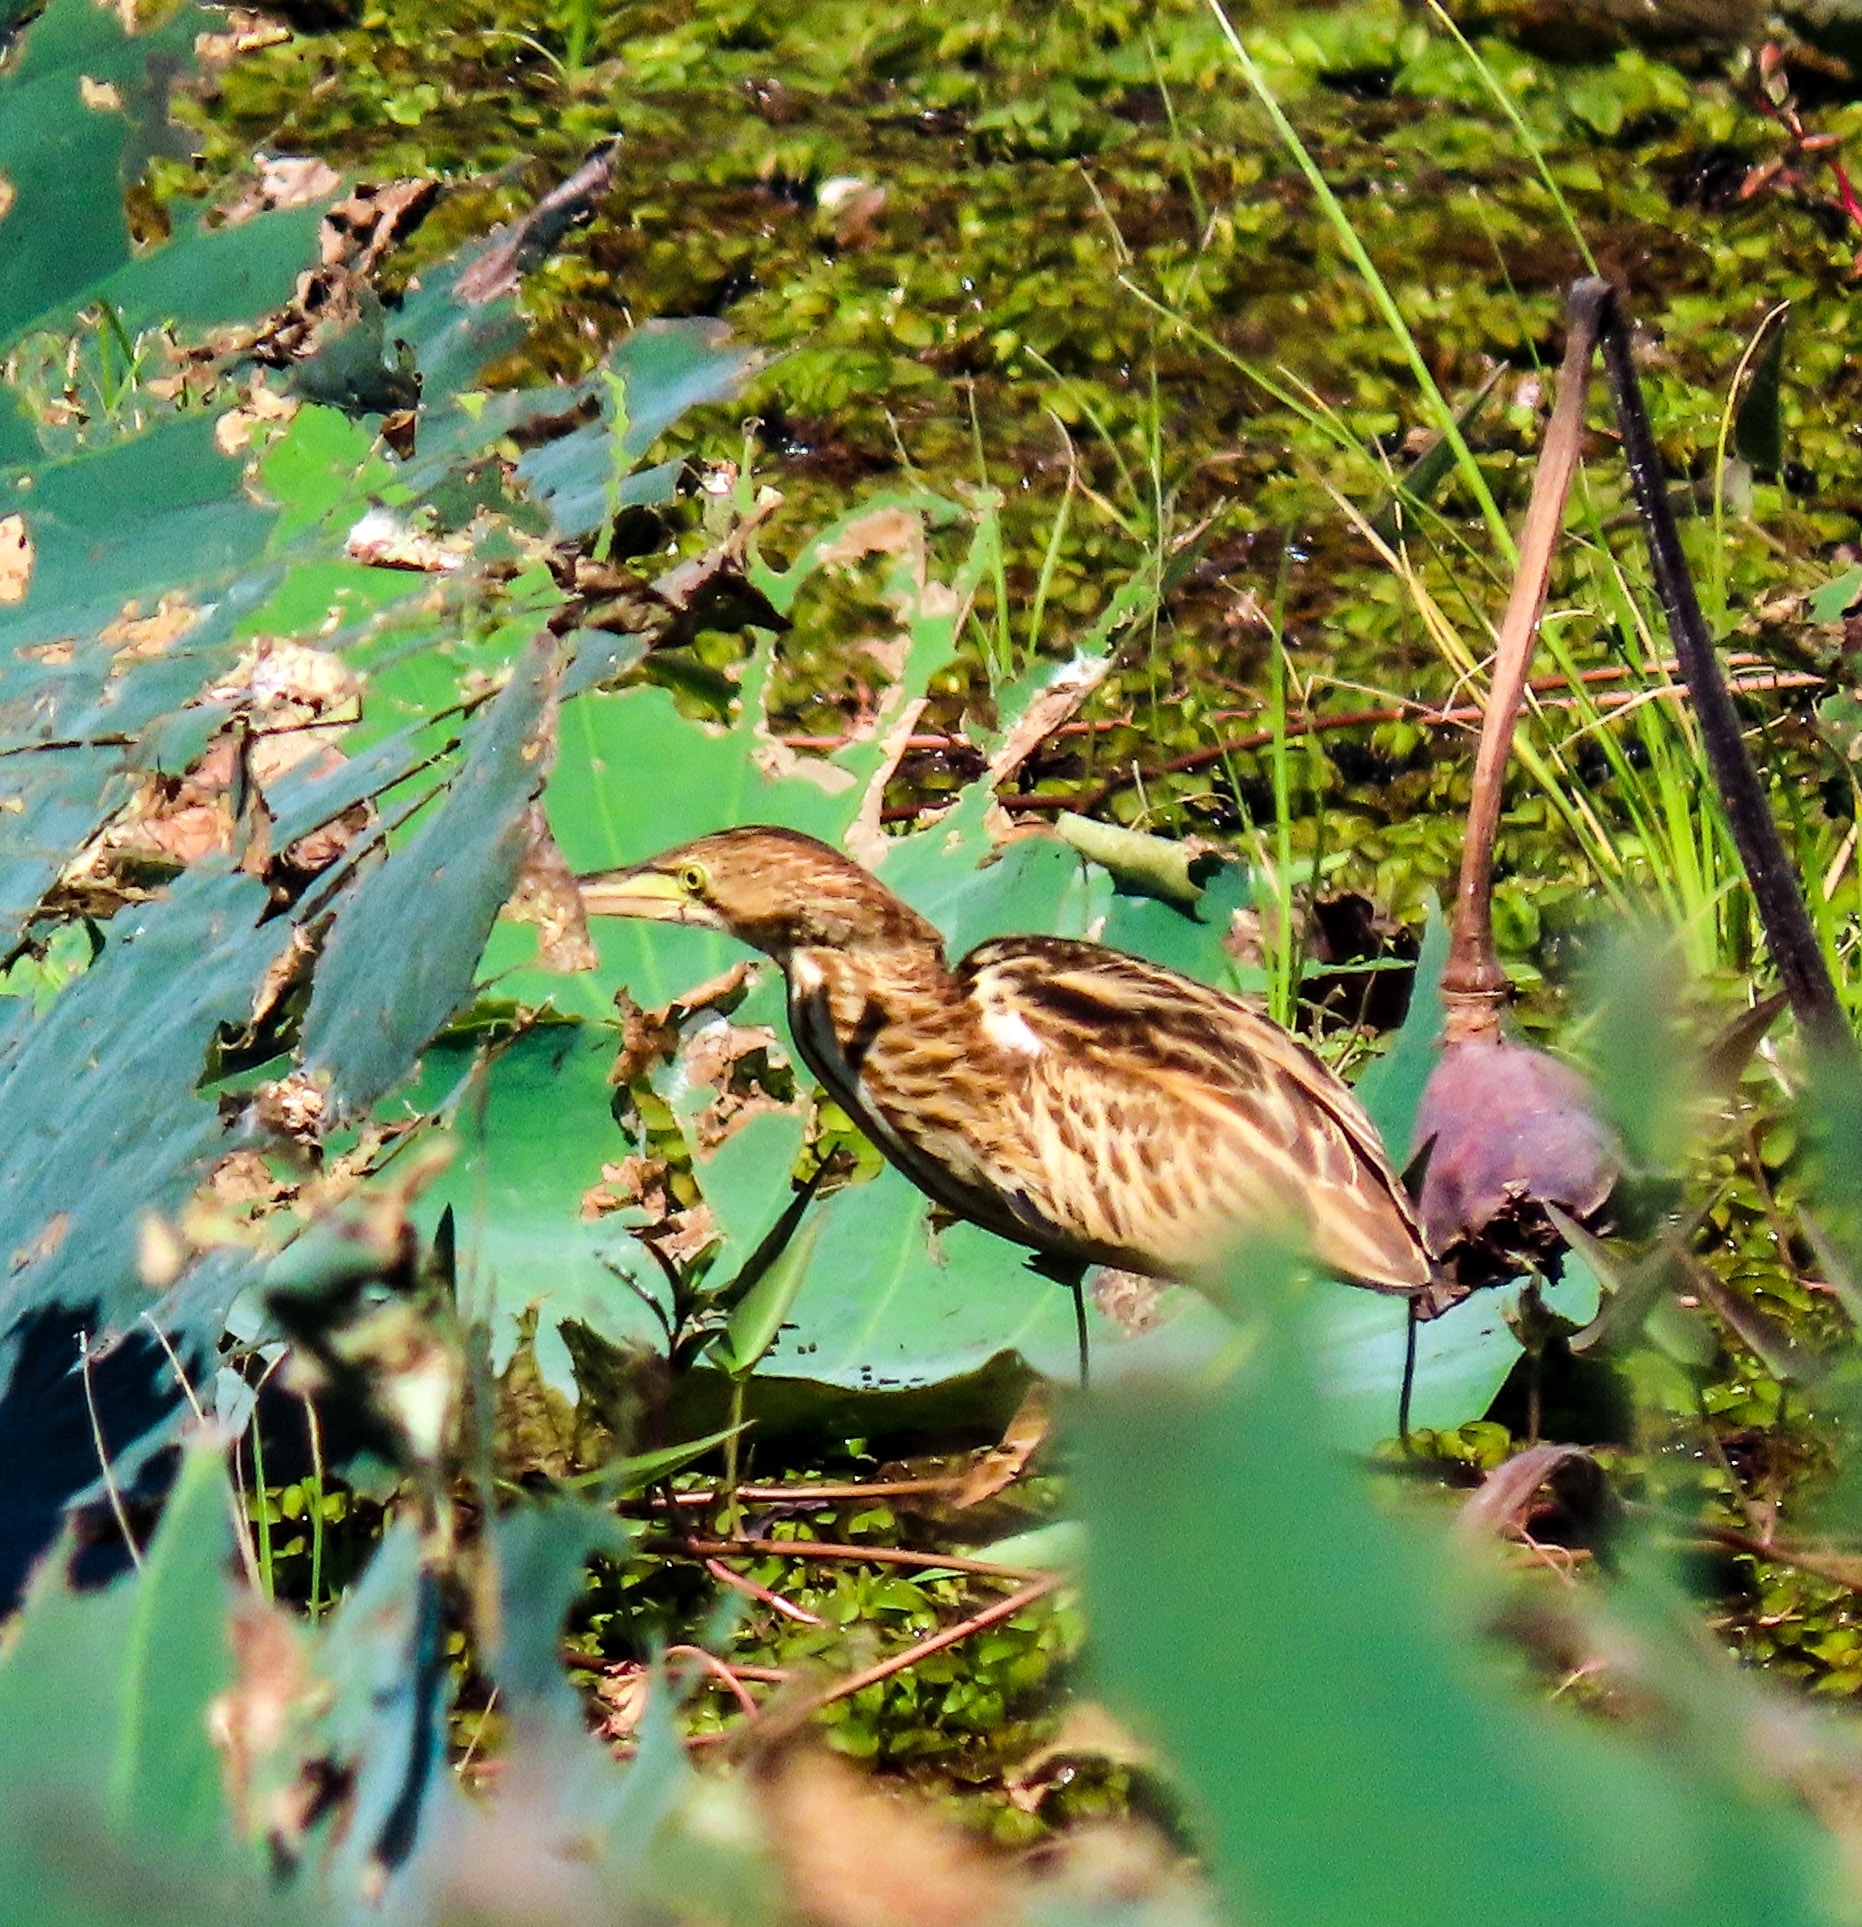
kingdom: Animalia
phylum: Chordata
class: Aves
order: Pelecaniformes
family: Ardeidae
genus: Ixobrychus
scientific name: Ixobrychus sinensis
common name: Yellow bittern
